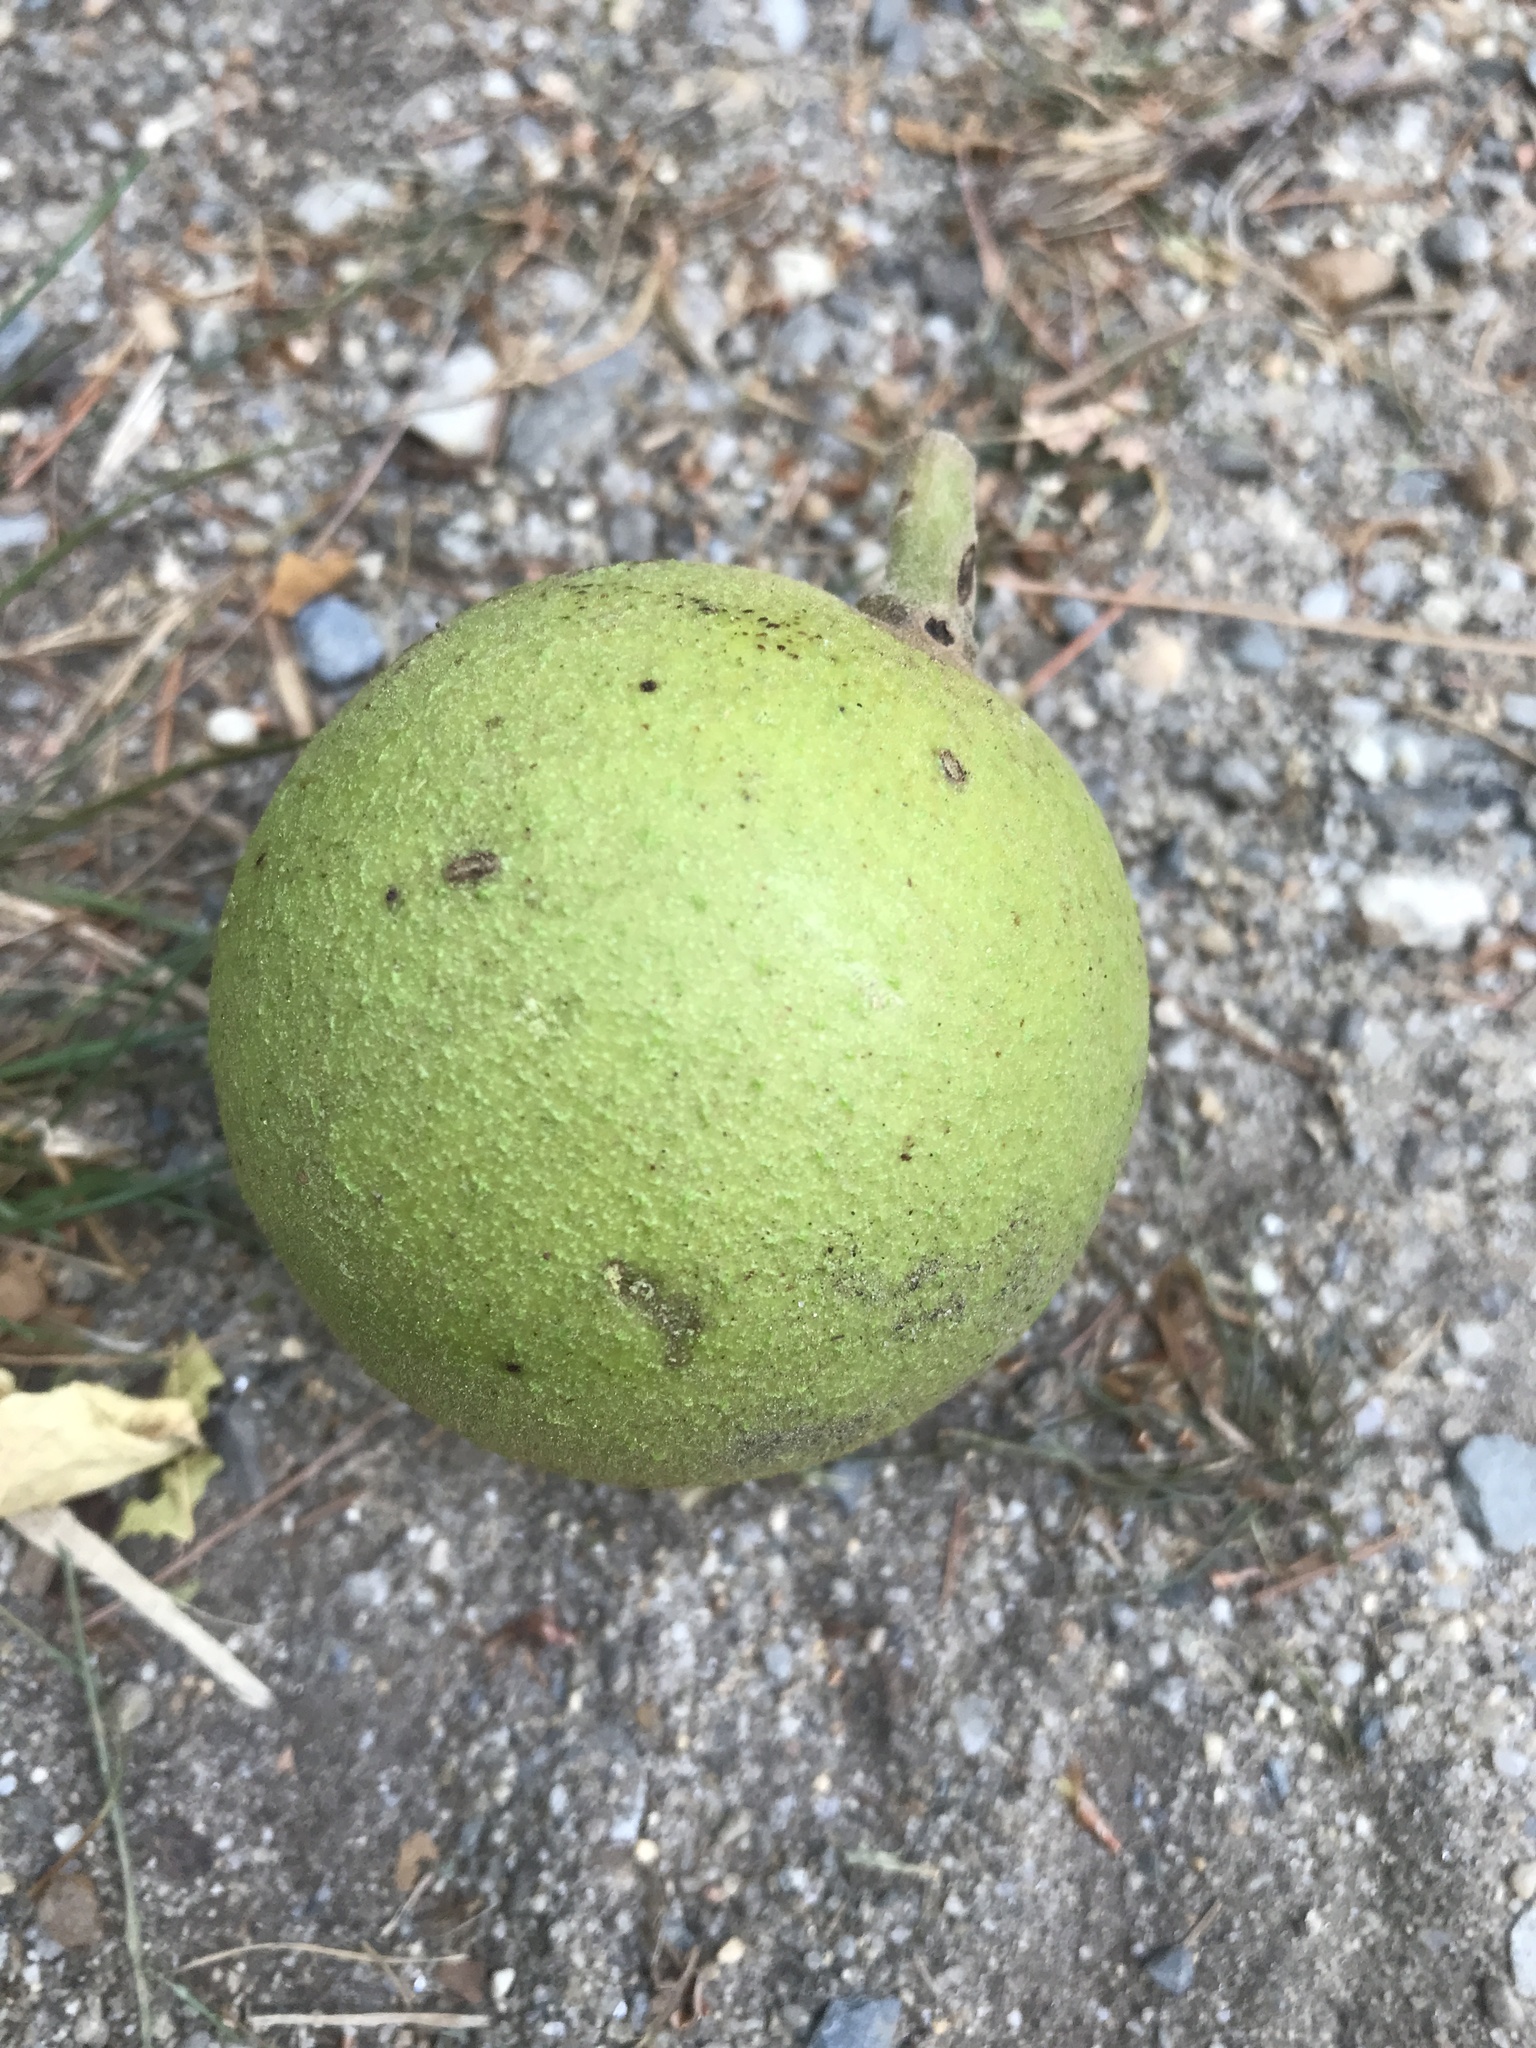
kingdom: Plantae
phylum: Tracheophyta
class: Magnoliopsida
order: Fagales
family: Juglandaceae
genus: Juglans
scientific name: Juglans nigra
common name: Black walnut
